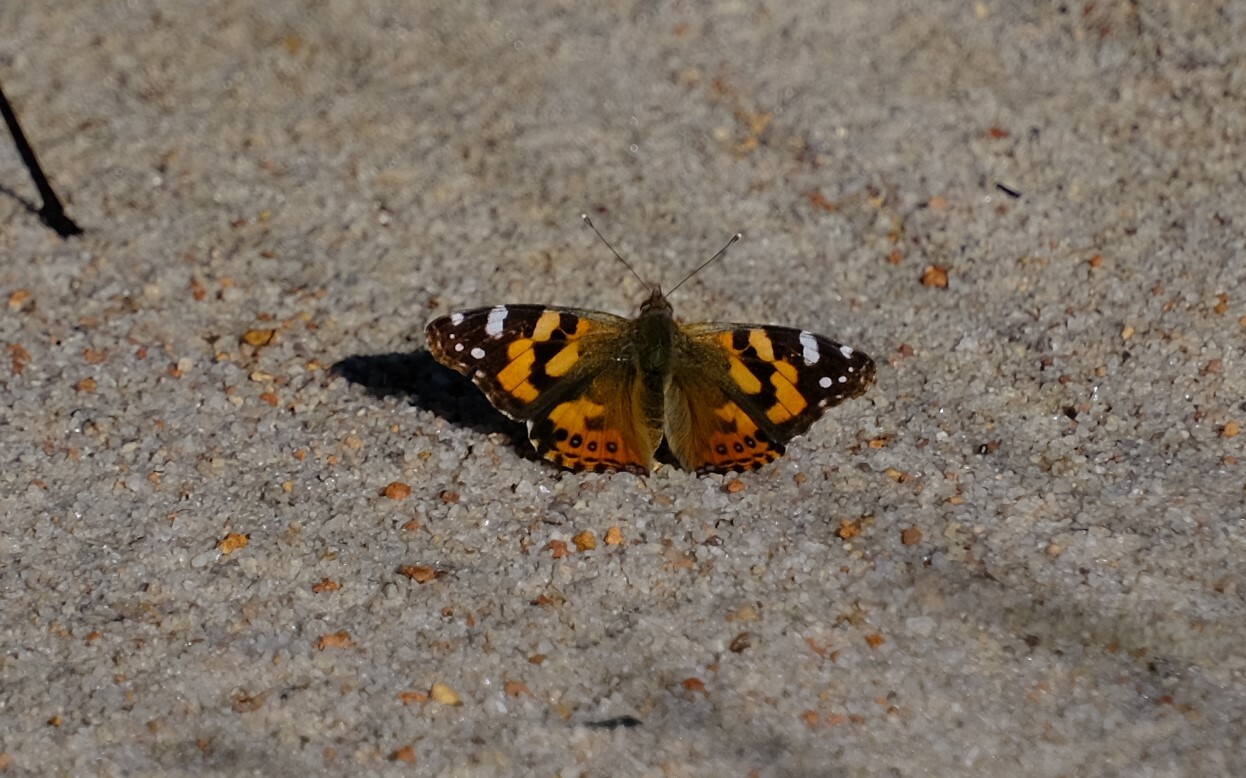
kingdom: Animalia
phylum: Arthropoda
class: Insecta
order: Lepidoptera
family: Nymphalidae
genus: Vanessa
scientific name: Vanessa kershawi
